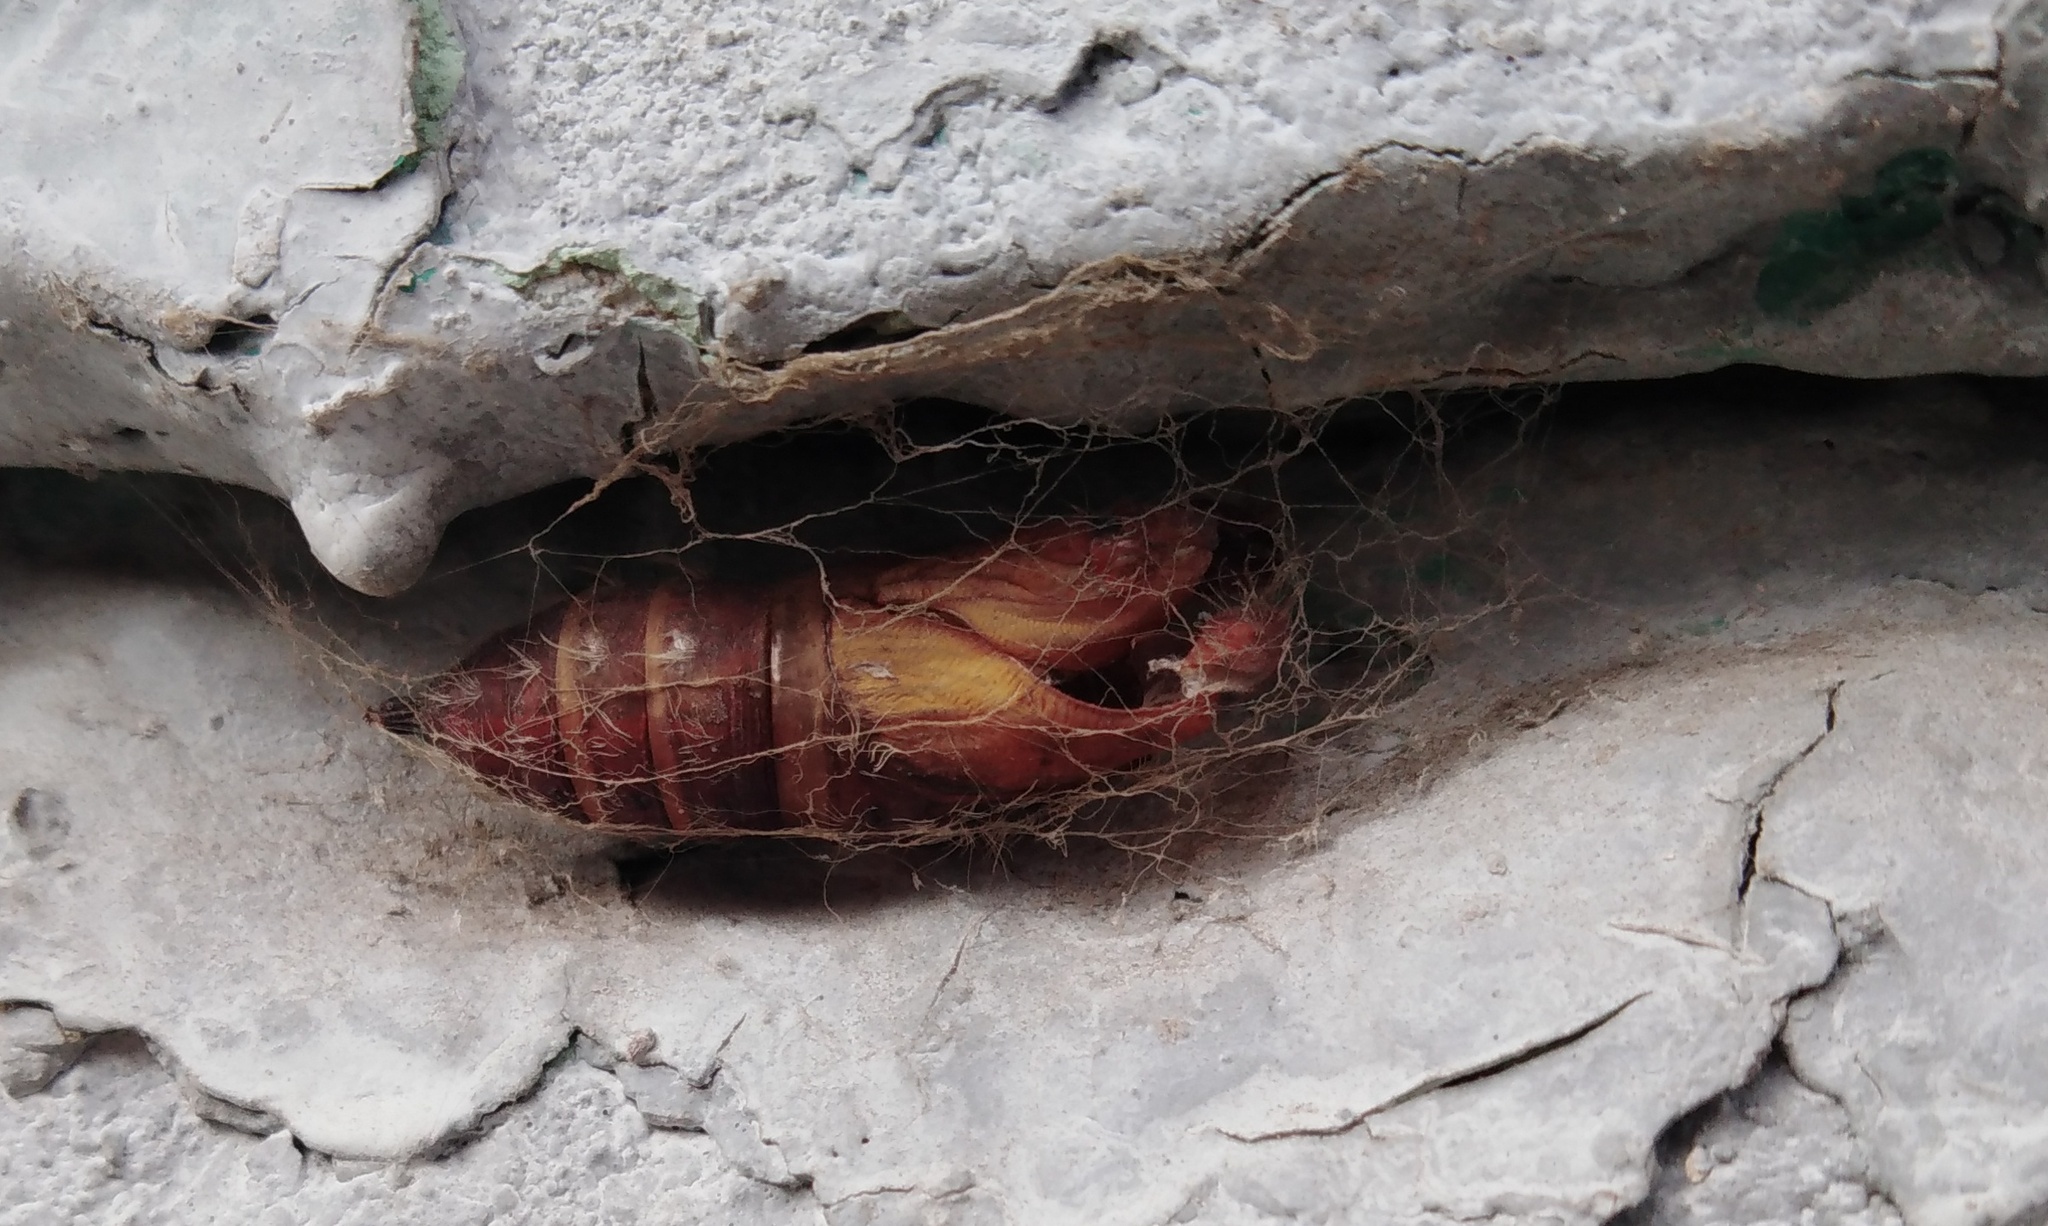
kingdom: Animalia
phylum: Arthropoda
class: Insecta
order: Lepidoptera
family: Erebidae
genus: Lymantria
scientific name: Lymantria dispar
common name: Gypsy moth
